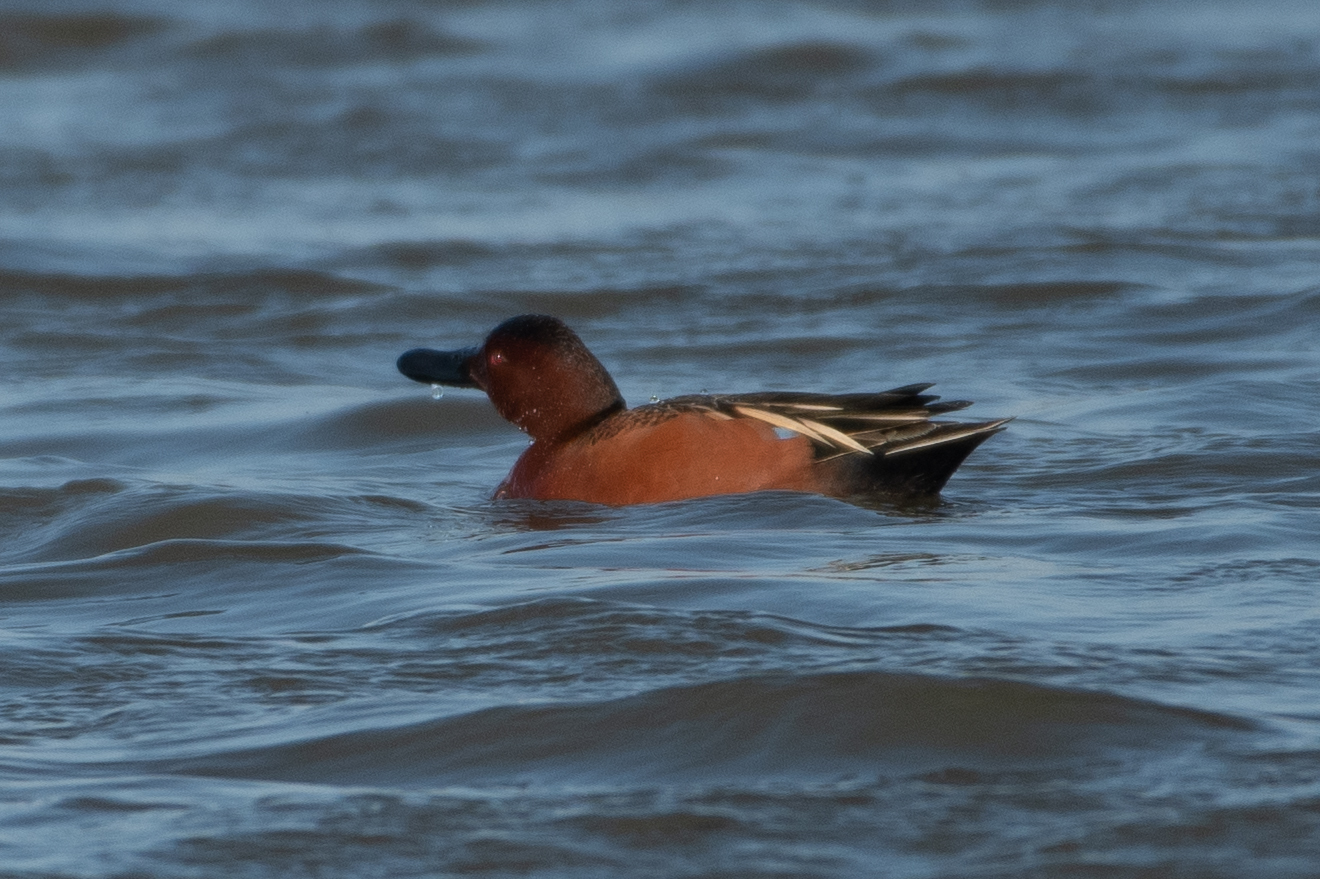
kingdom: Animalia
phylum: Chordata
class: Aves
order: Anseriformes
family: Anatidae
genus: Spatula
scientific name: Spatula cyanoptera
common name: Cinnamon teal
